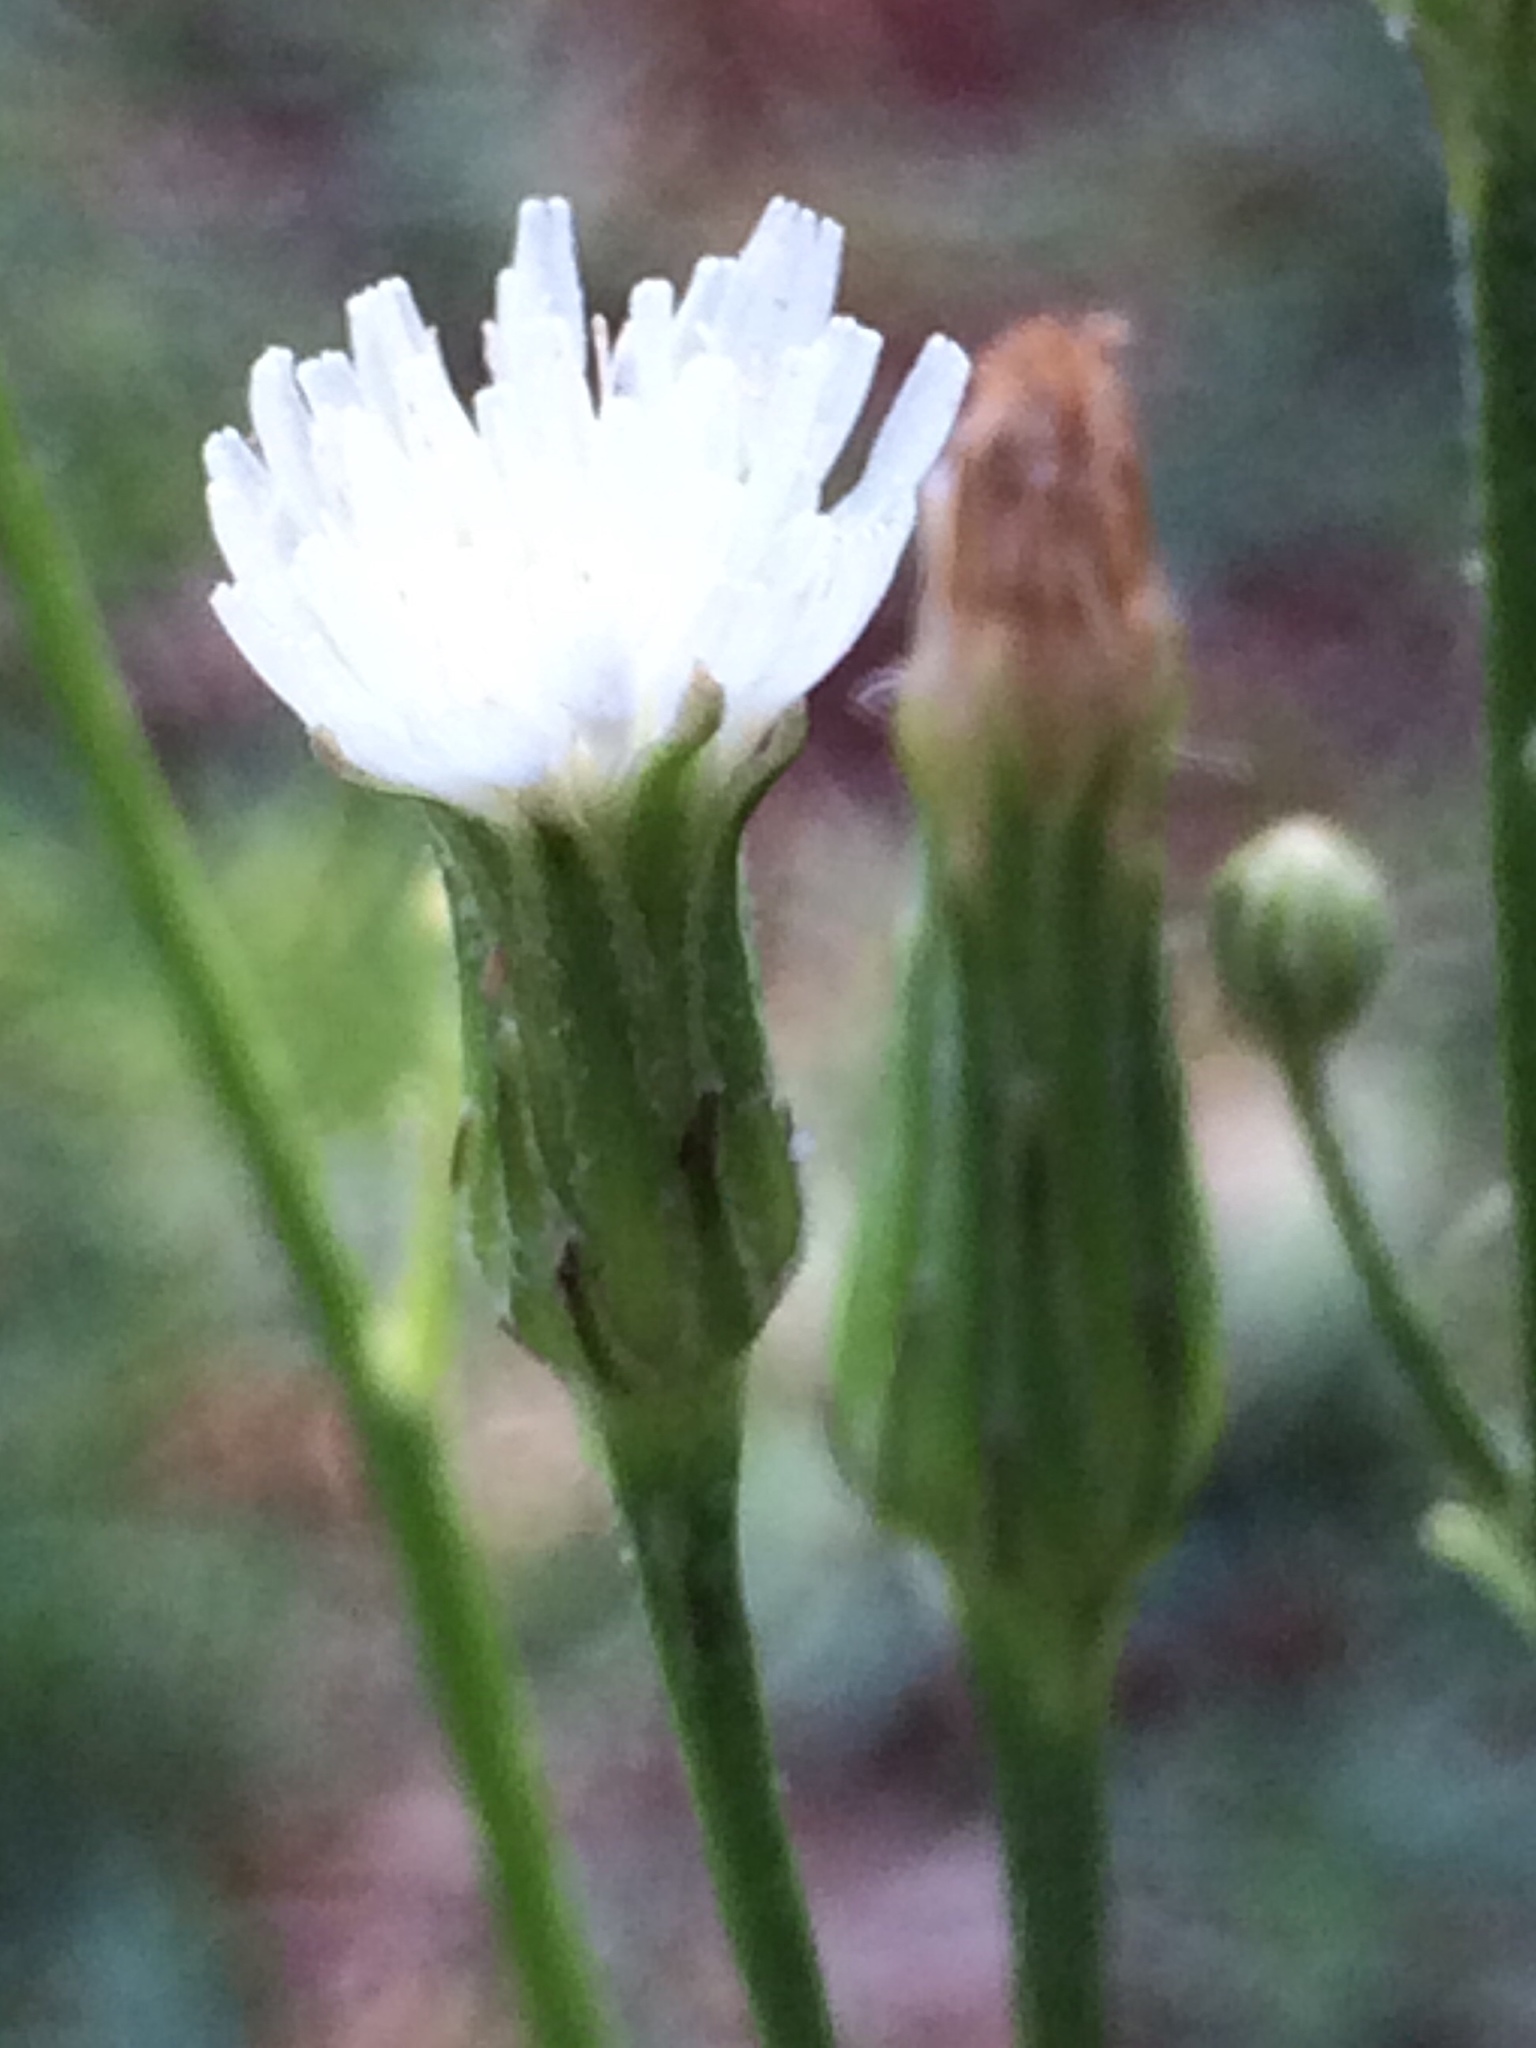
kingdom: Plantae
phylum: Tracheophyta
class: Magnoliopsida
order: Asterales
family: Asteraceae
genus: Hypochaeris
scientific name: Hypochaeris albiflora
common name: White flatweed
